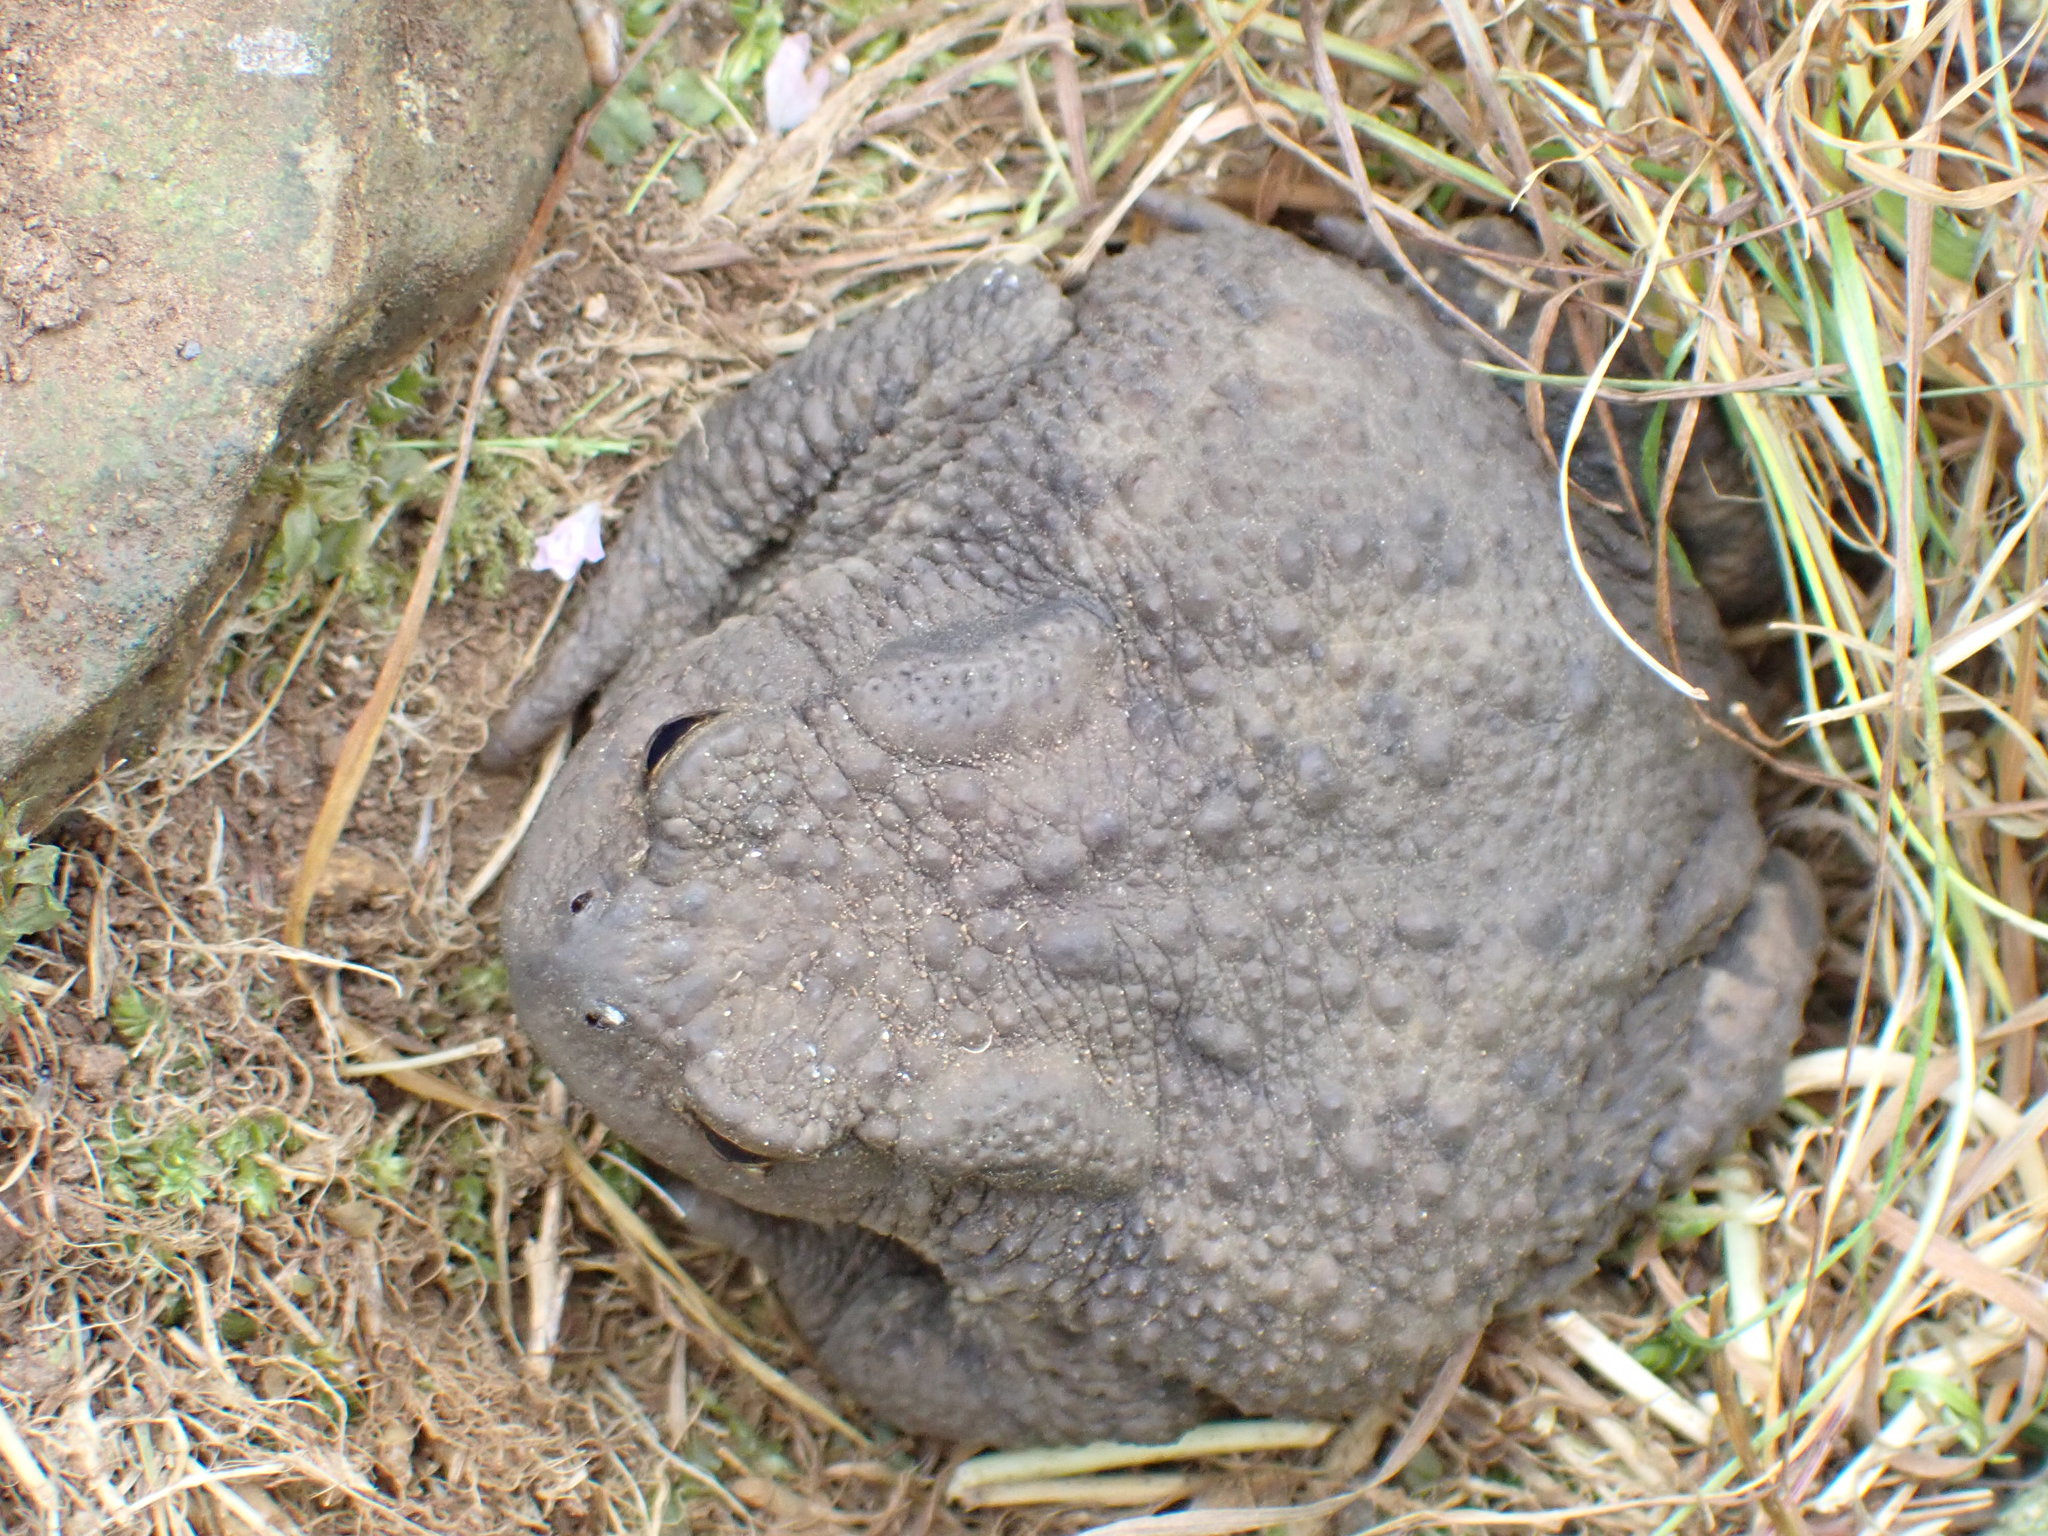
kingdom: Animalia
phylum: Chordata
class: Amphibia
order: Anura
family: Bufonidae
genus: Bufo
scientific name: Bufo bufo
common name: Common toad
